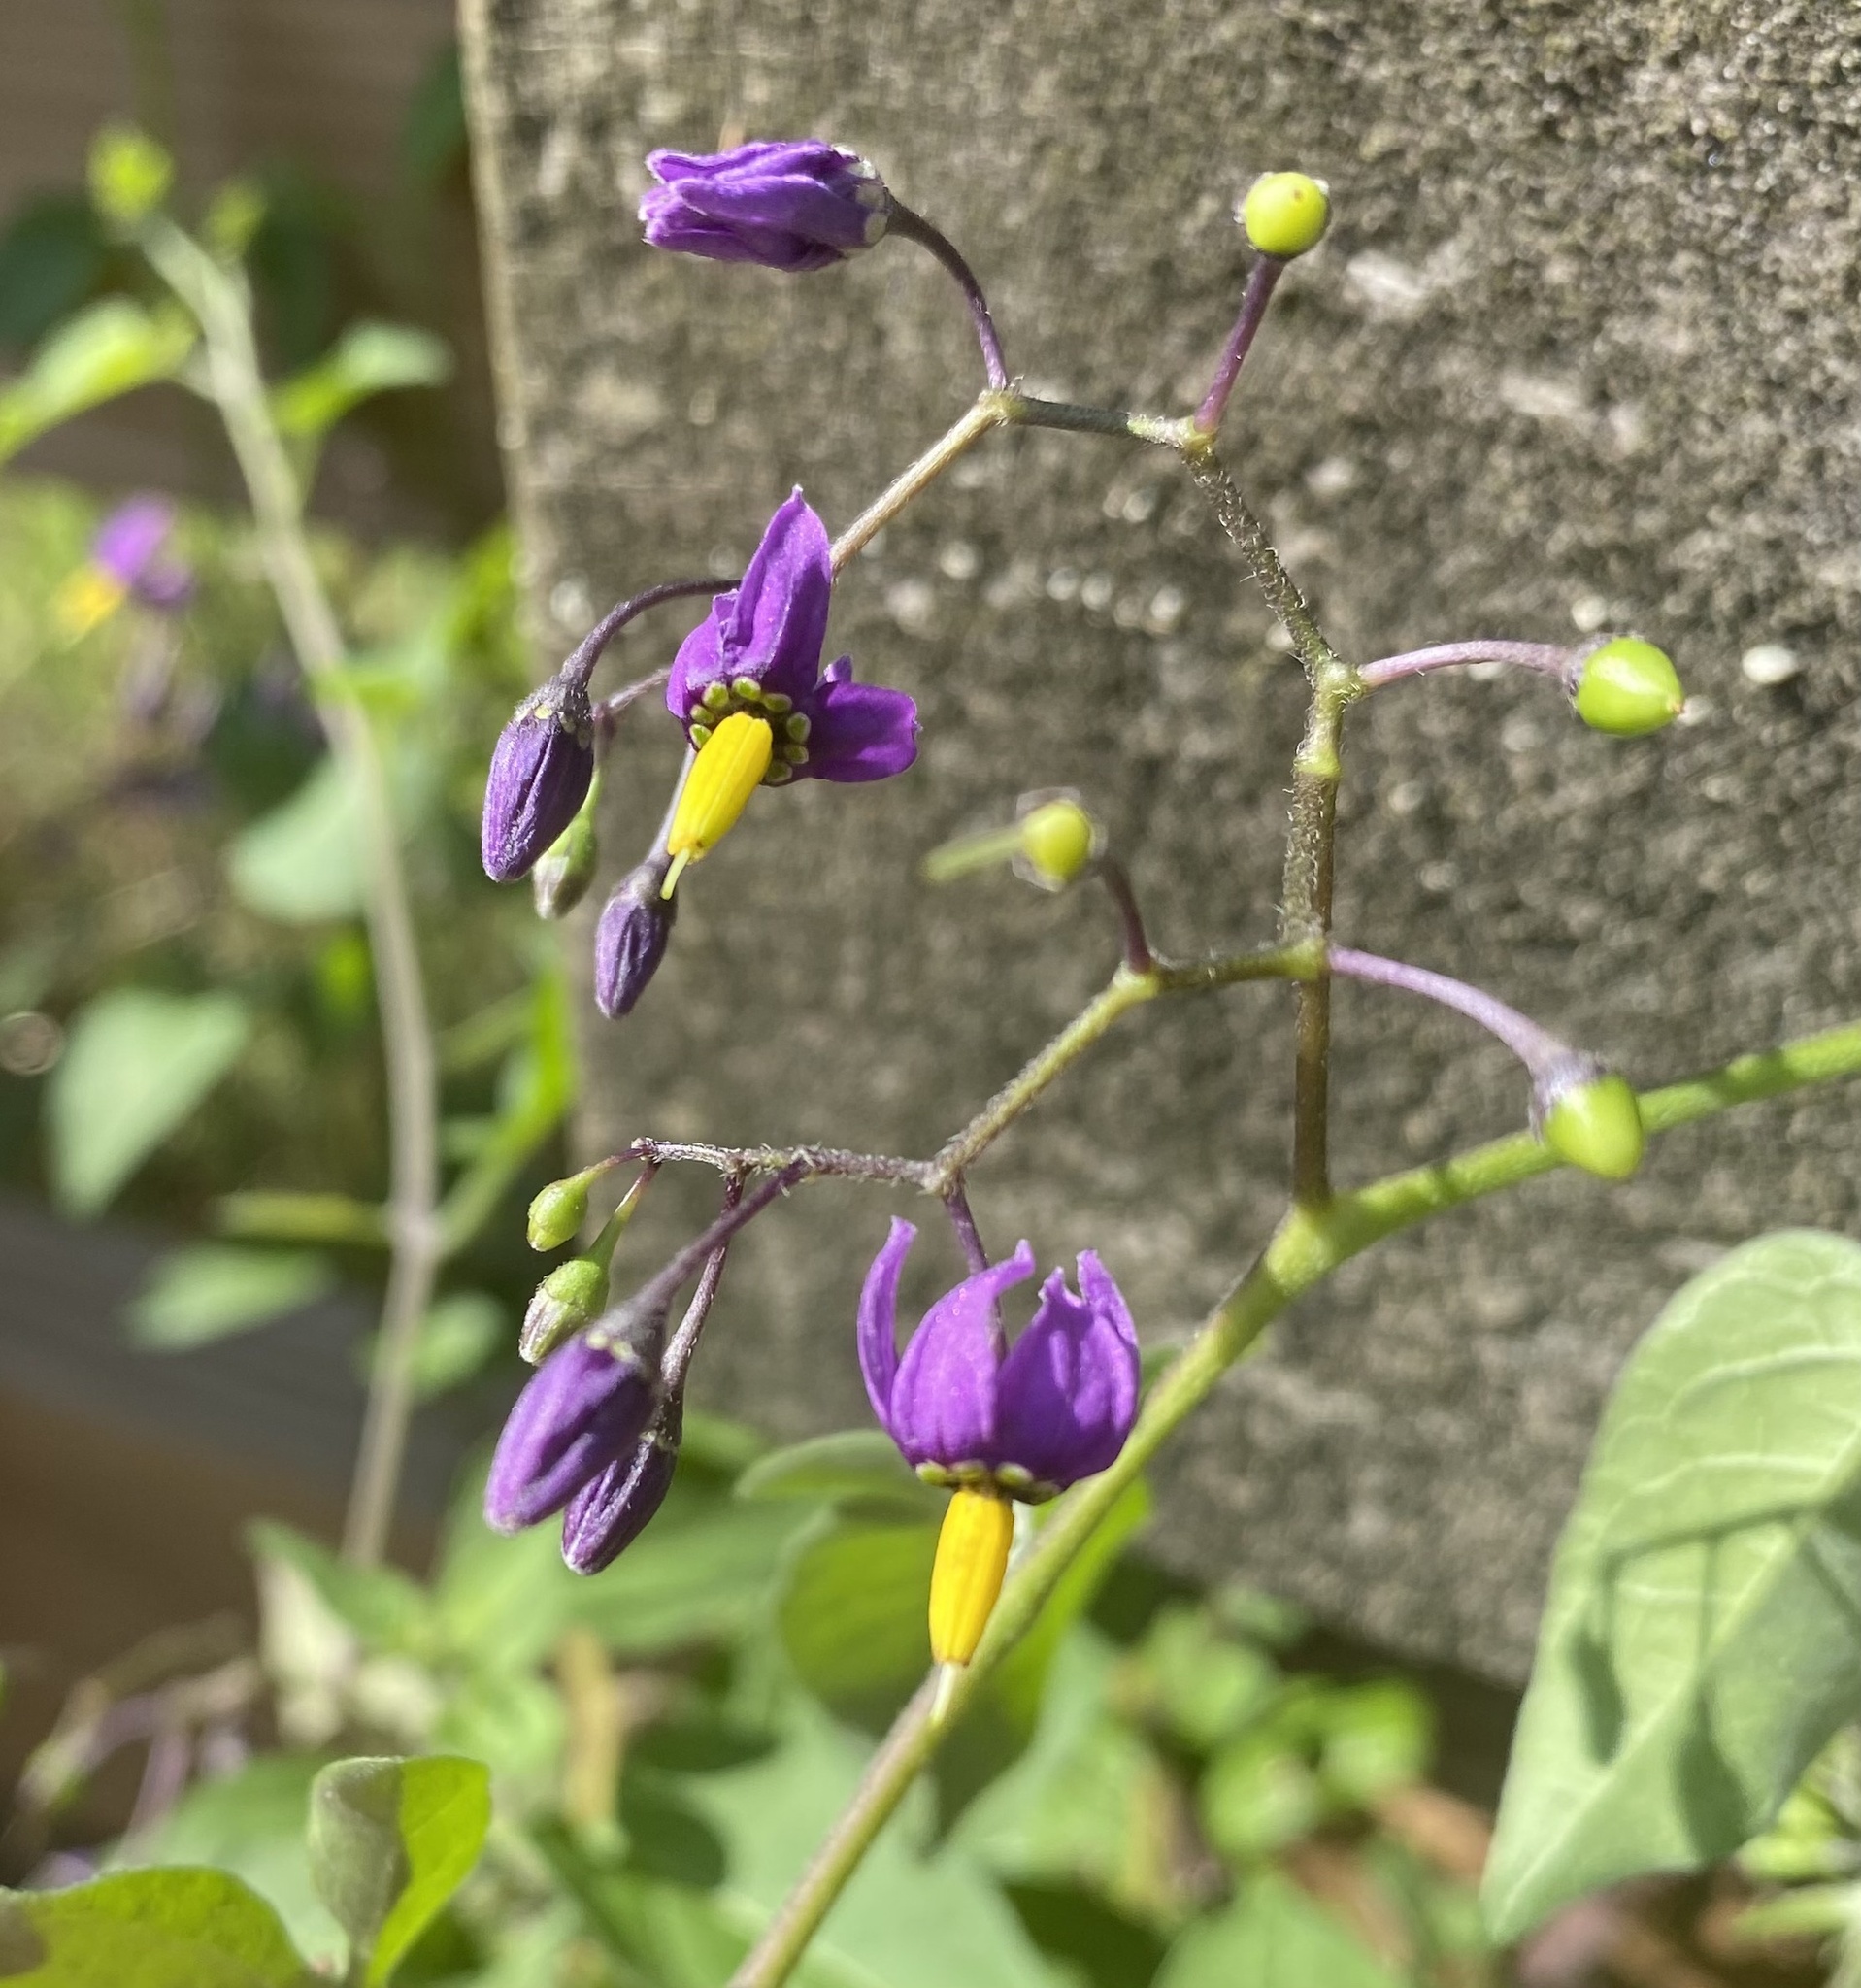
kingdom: Plantae
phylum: Tracheophyta
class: Magnoliopsida
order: Solanales
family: Solanaceae
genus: Solanum
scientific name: Solanum dulcamara
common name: Climbing nightshade
